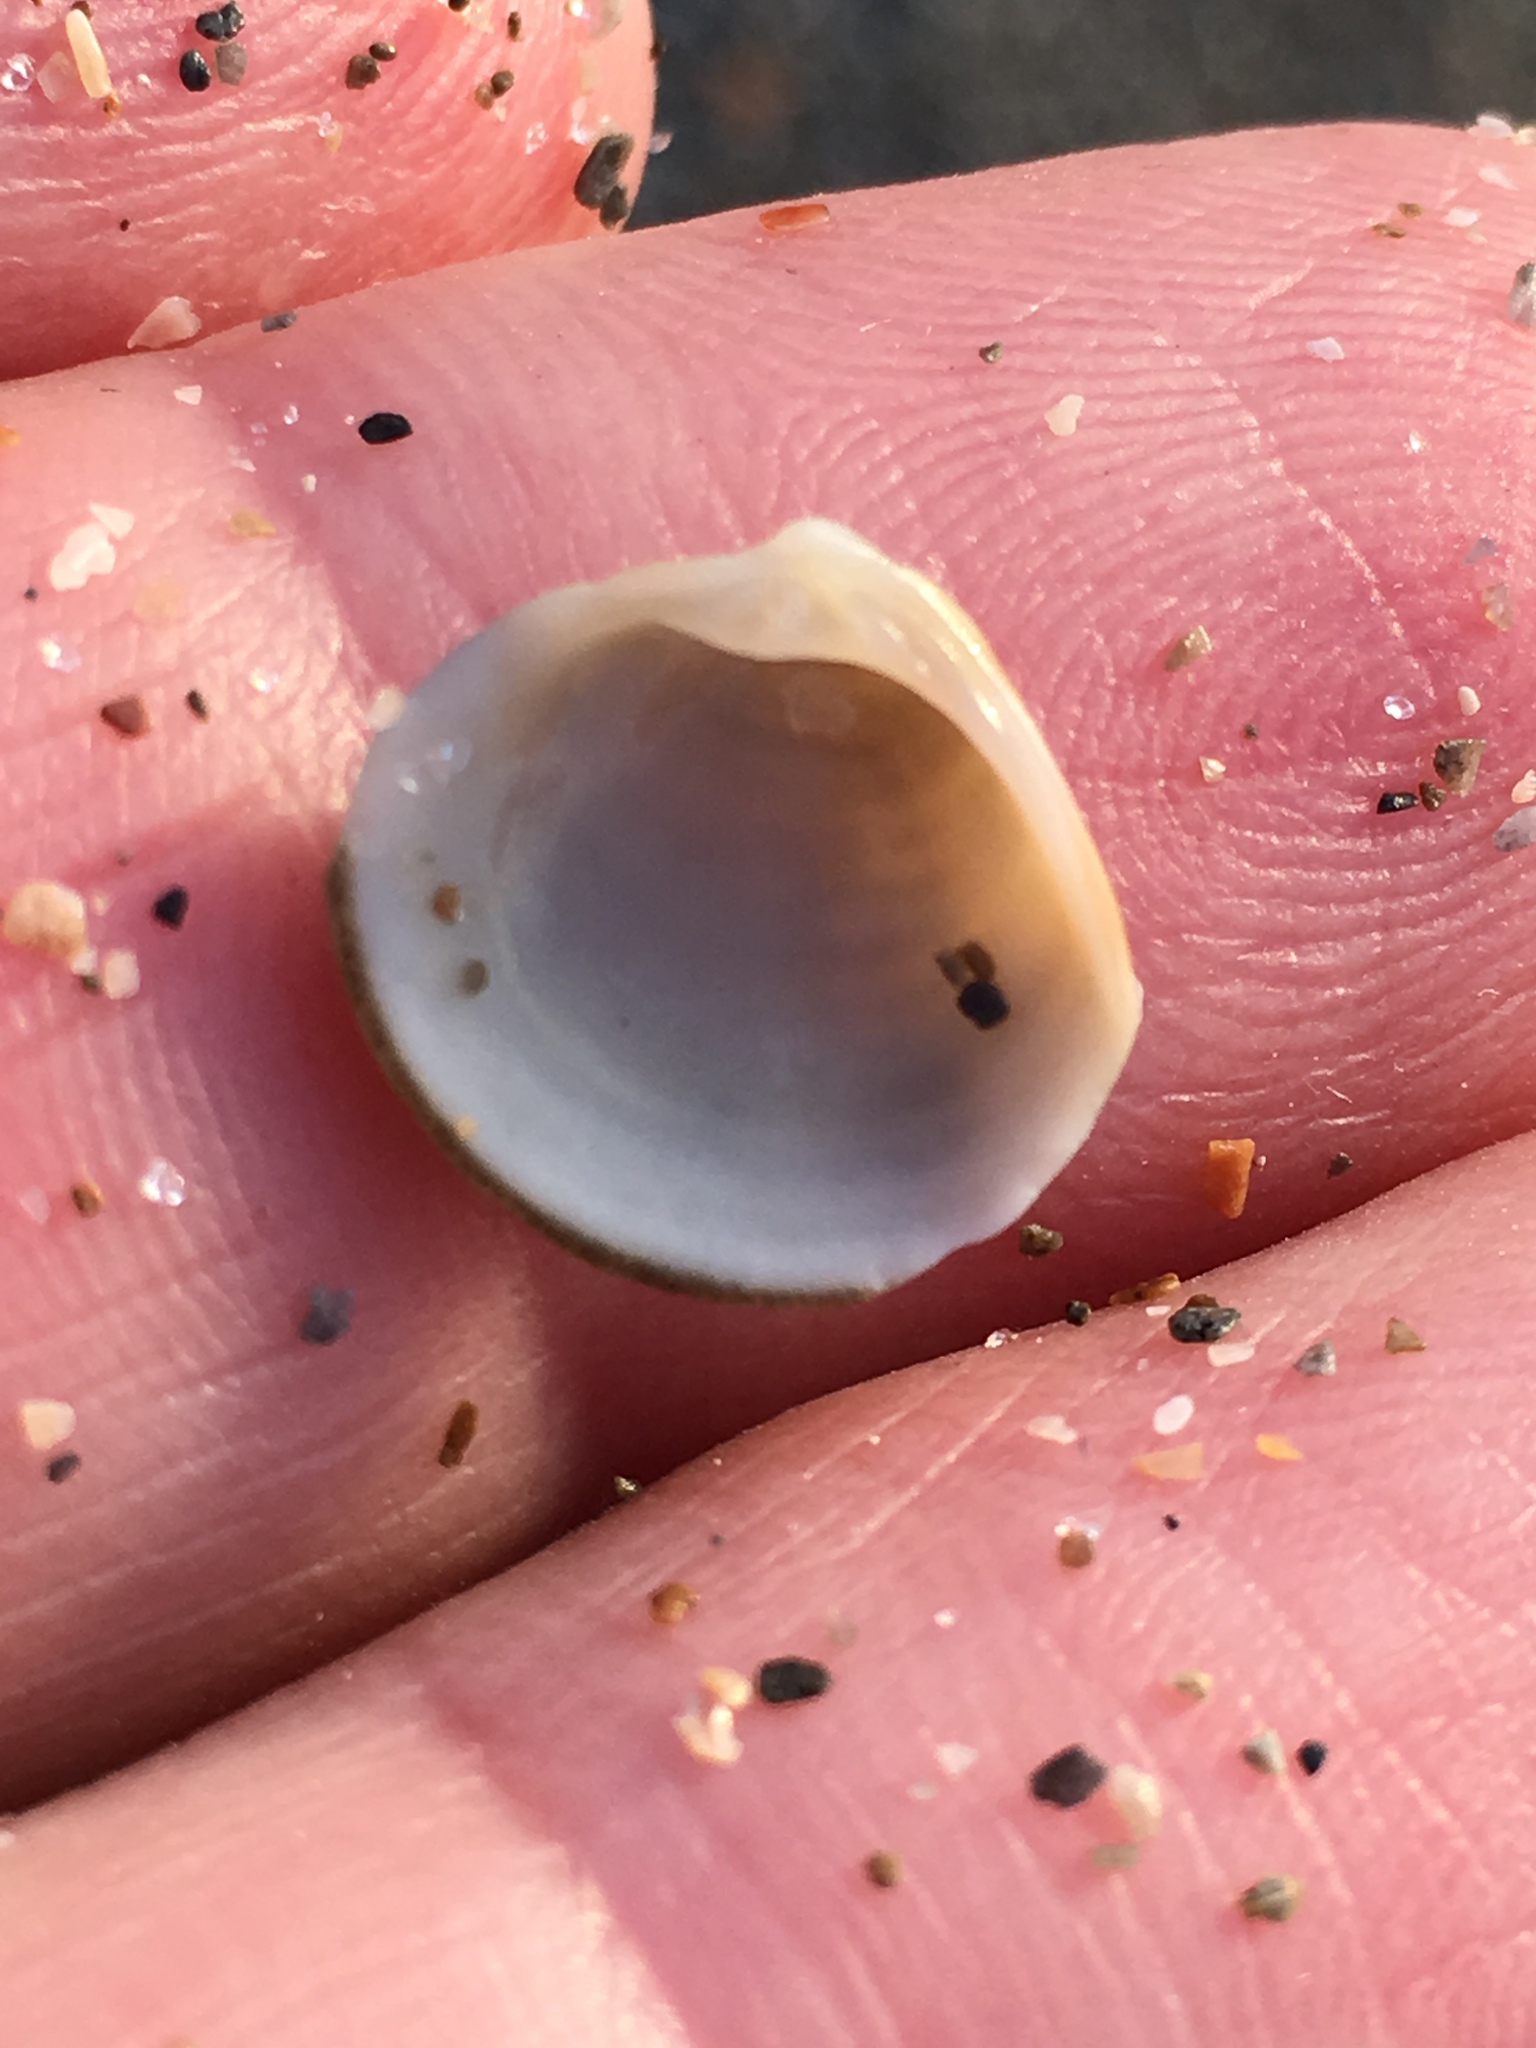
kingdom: Animalia
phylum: Mollusca
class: Bivalvia
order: Venerida
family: Veneridae
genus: Chionopsis
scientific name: Chionopsis intapurpurea
